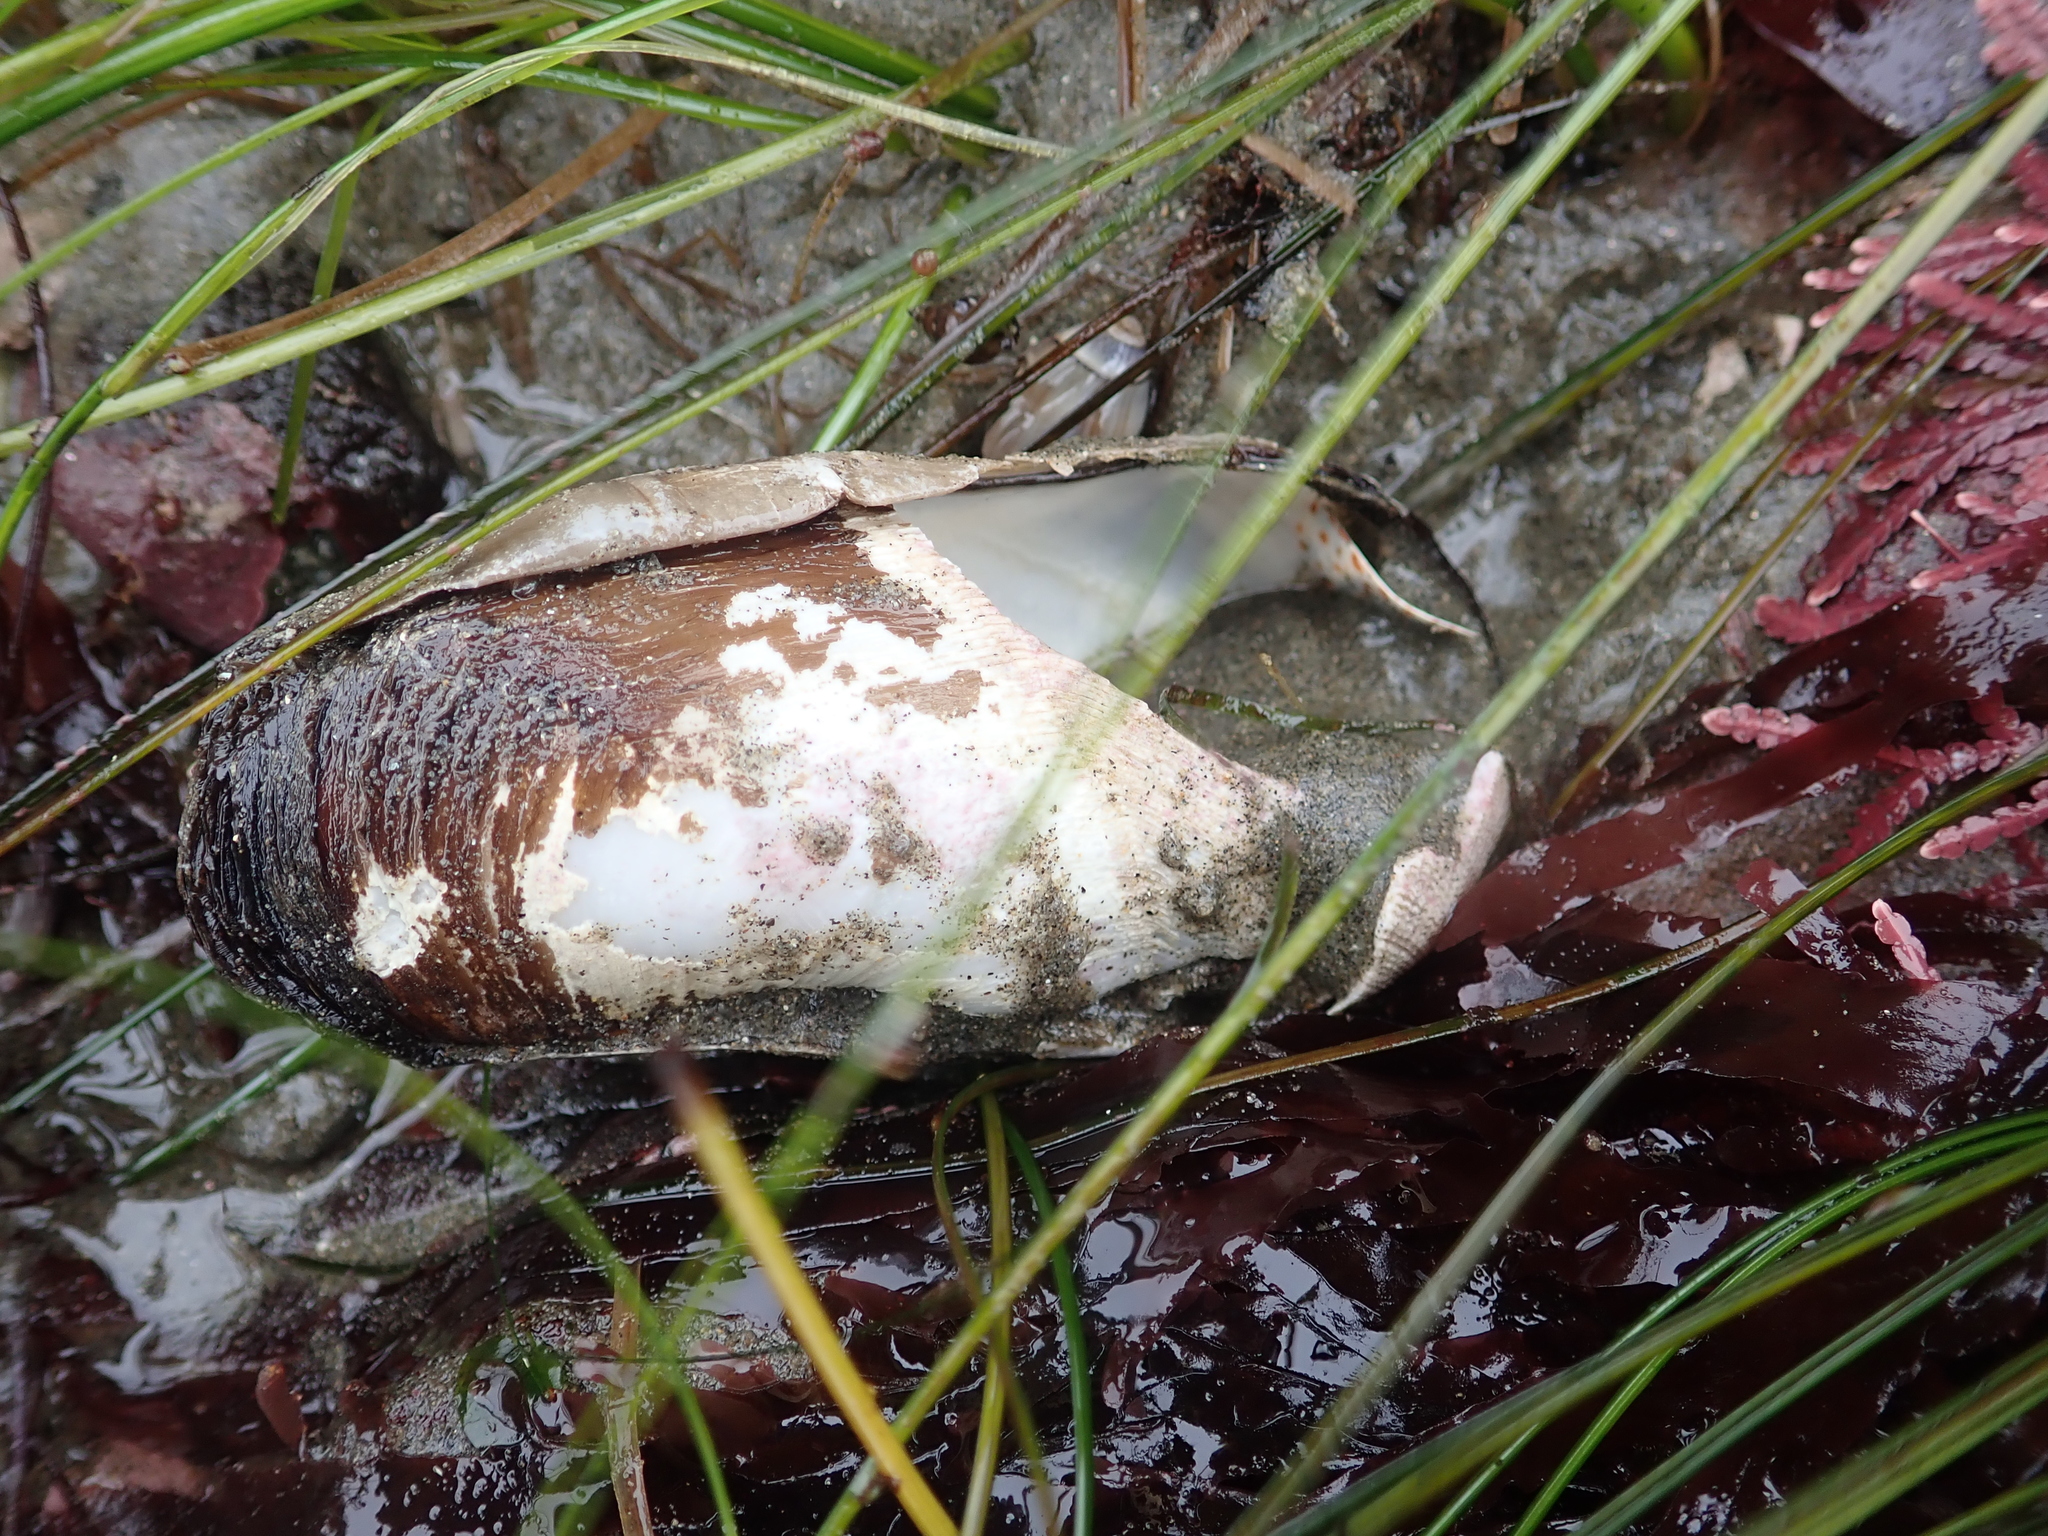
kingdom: Animalia
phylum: Mollusca
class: Bivalvia
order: Myida
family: Pholadidae
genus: Parapholas
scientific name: Parapholas californica
